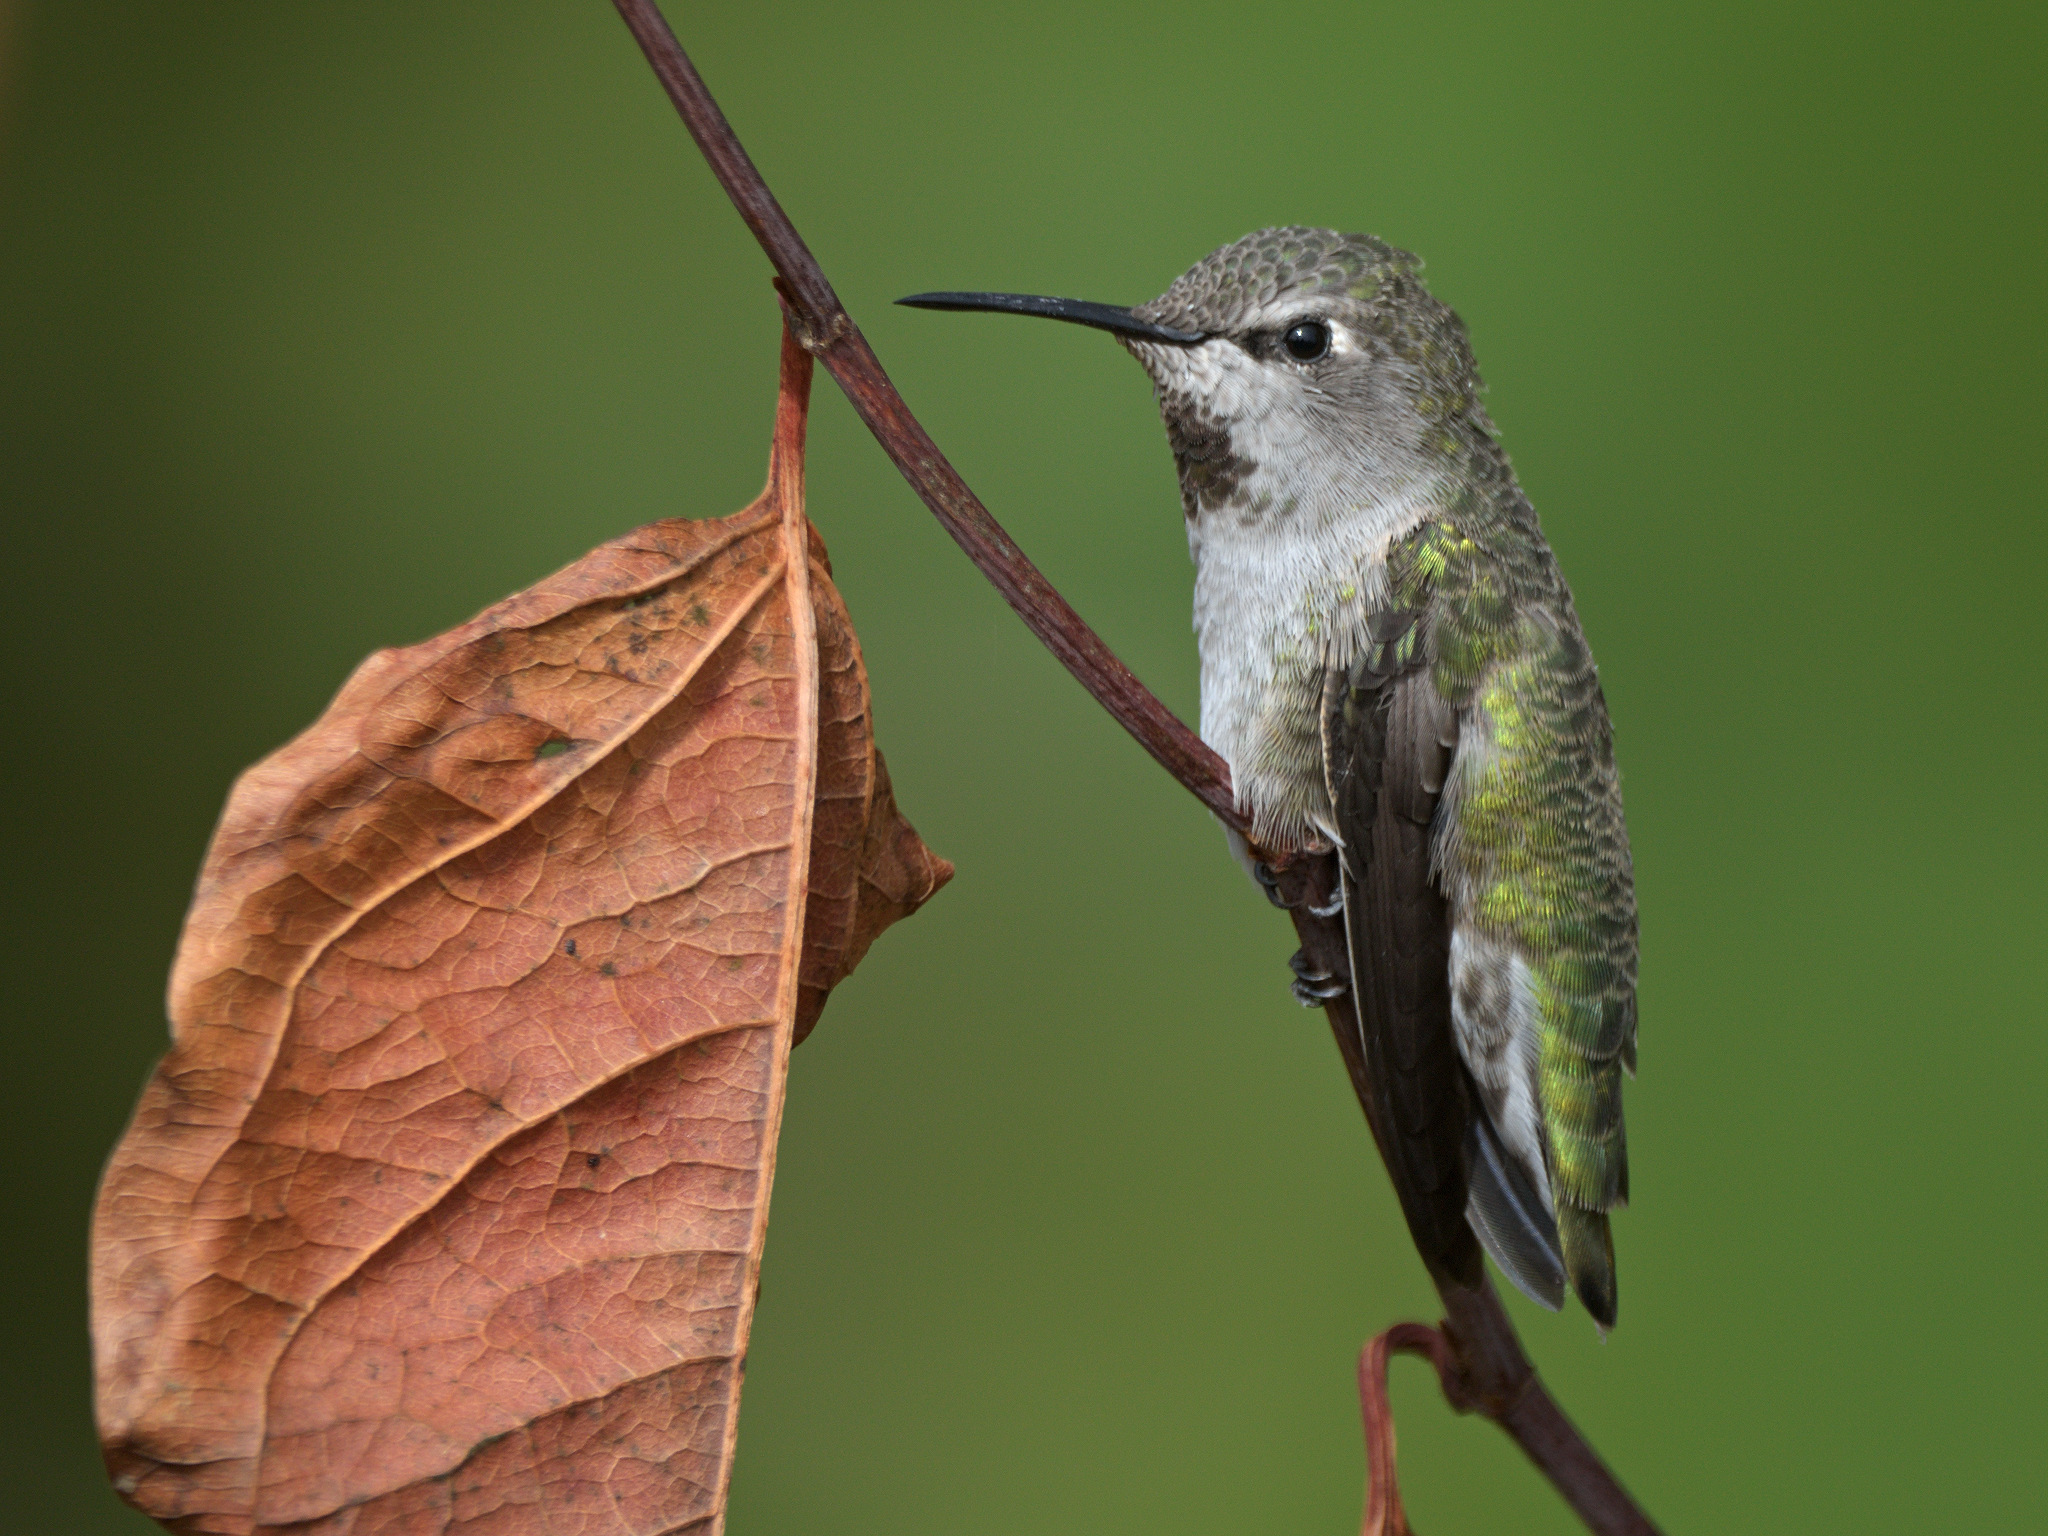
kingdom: Animalia
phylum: Chordata
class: Aves
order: Apodiformes
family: Trochilidae
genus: Calypte
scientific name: Calypte anna
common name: Anna's hummingbird
